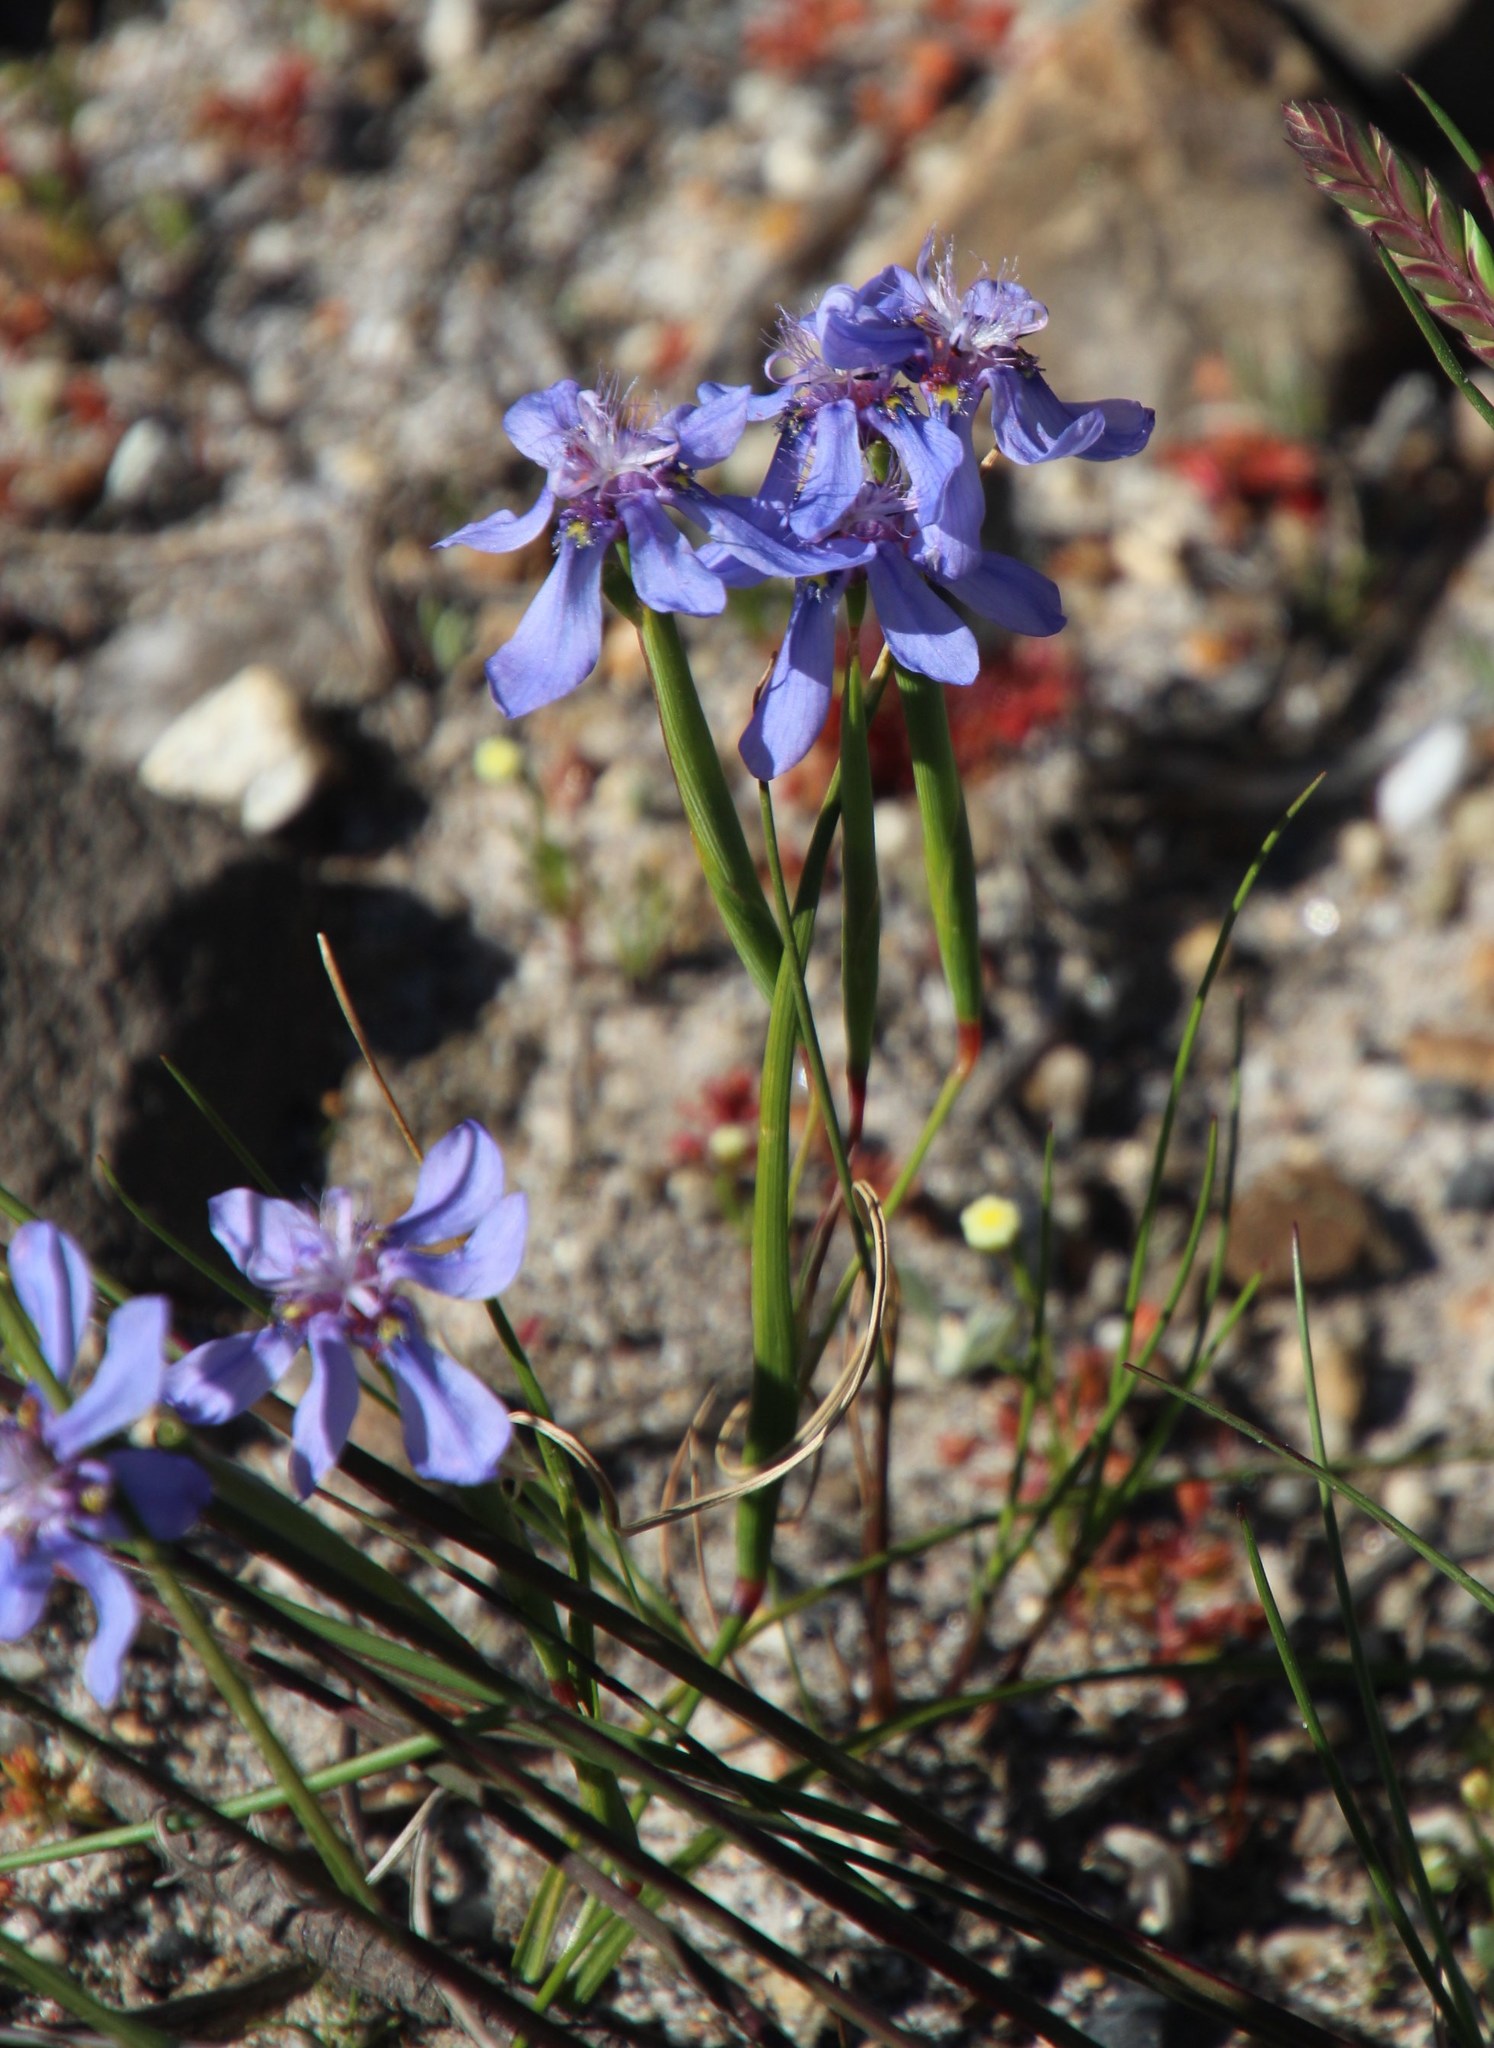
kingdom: Plantae
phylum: Tracheophyta
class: Liliopsida
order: Asparagales
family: Iridaceae
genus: Moraea
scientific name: Moraea lugubris
